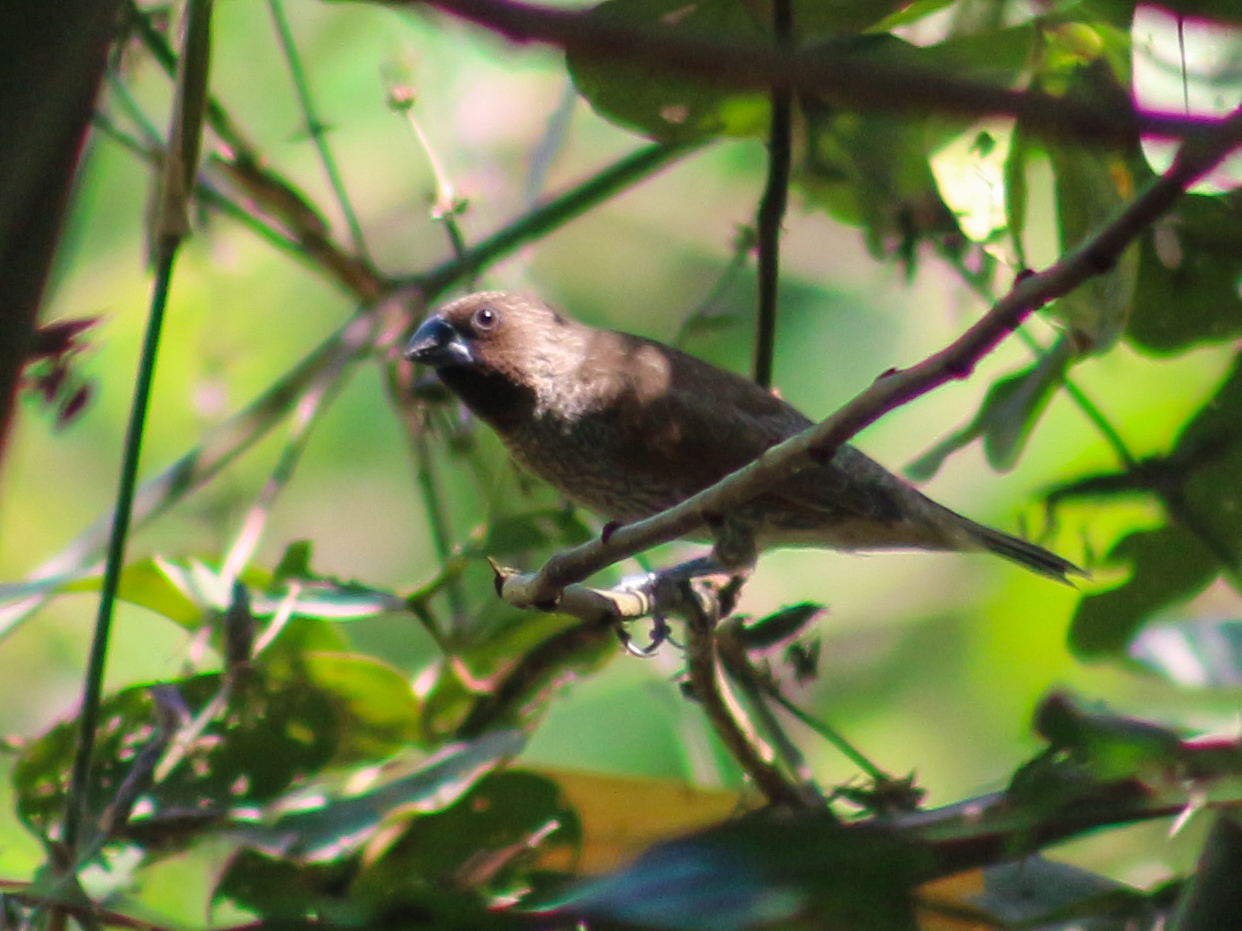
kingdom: Animalia
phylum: Chordata
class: Aves
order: Passeriformes
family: Estrildidae
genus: Lonchura
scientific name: Lonchura punctulata
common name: Scaly-breasted munia
